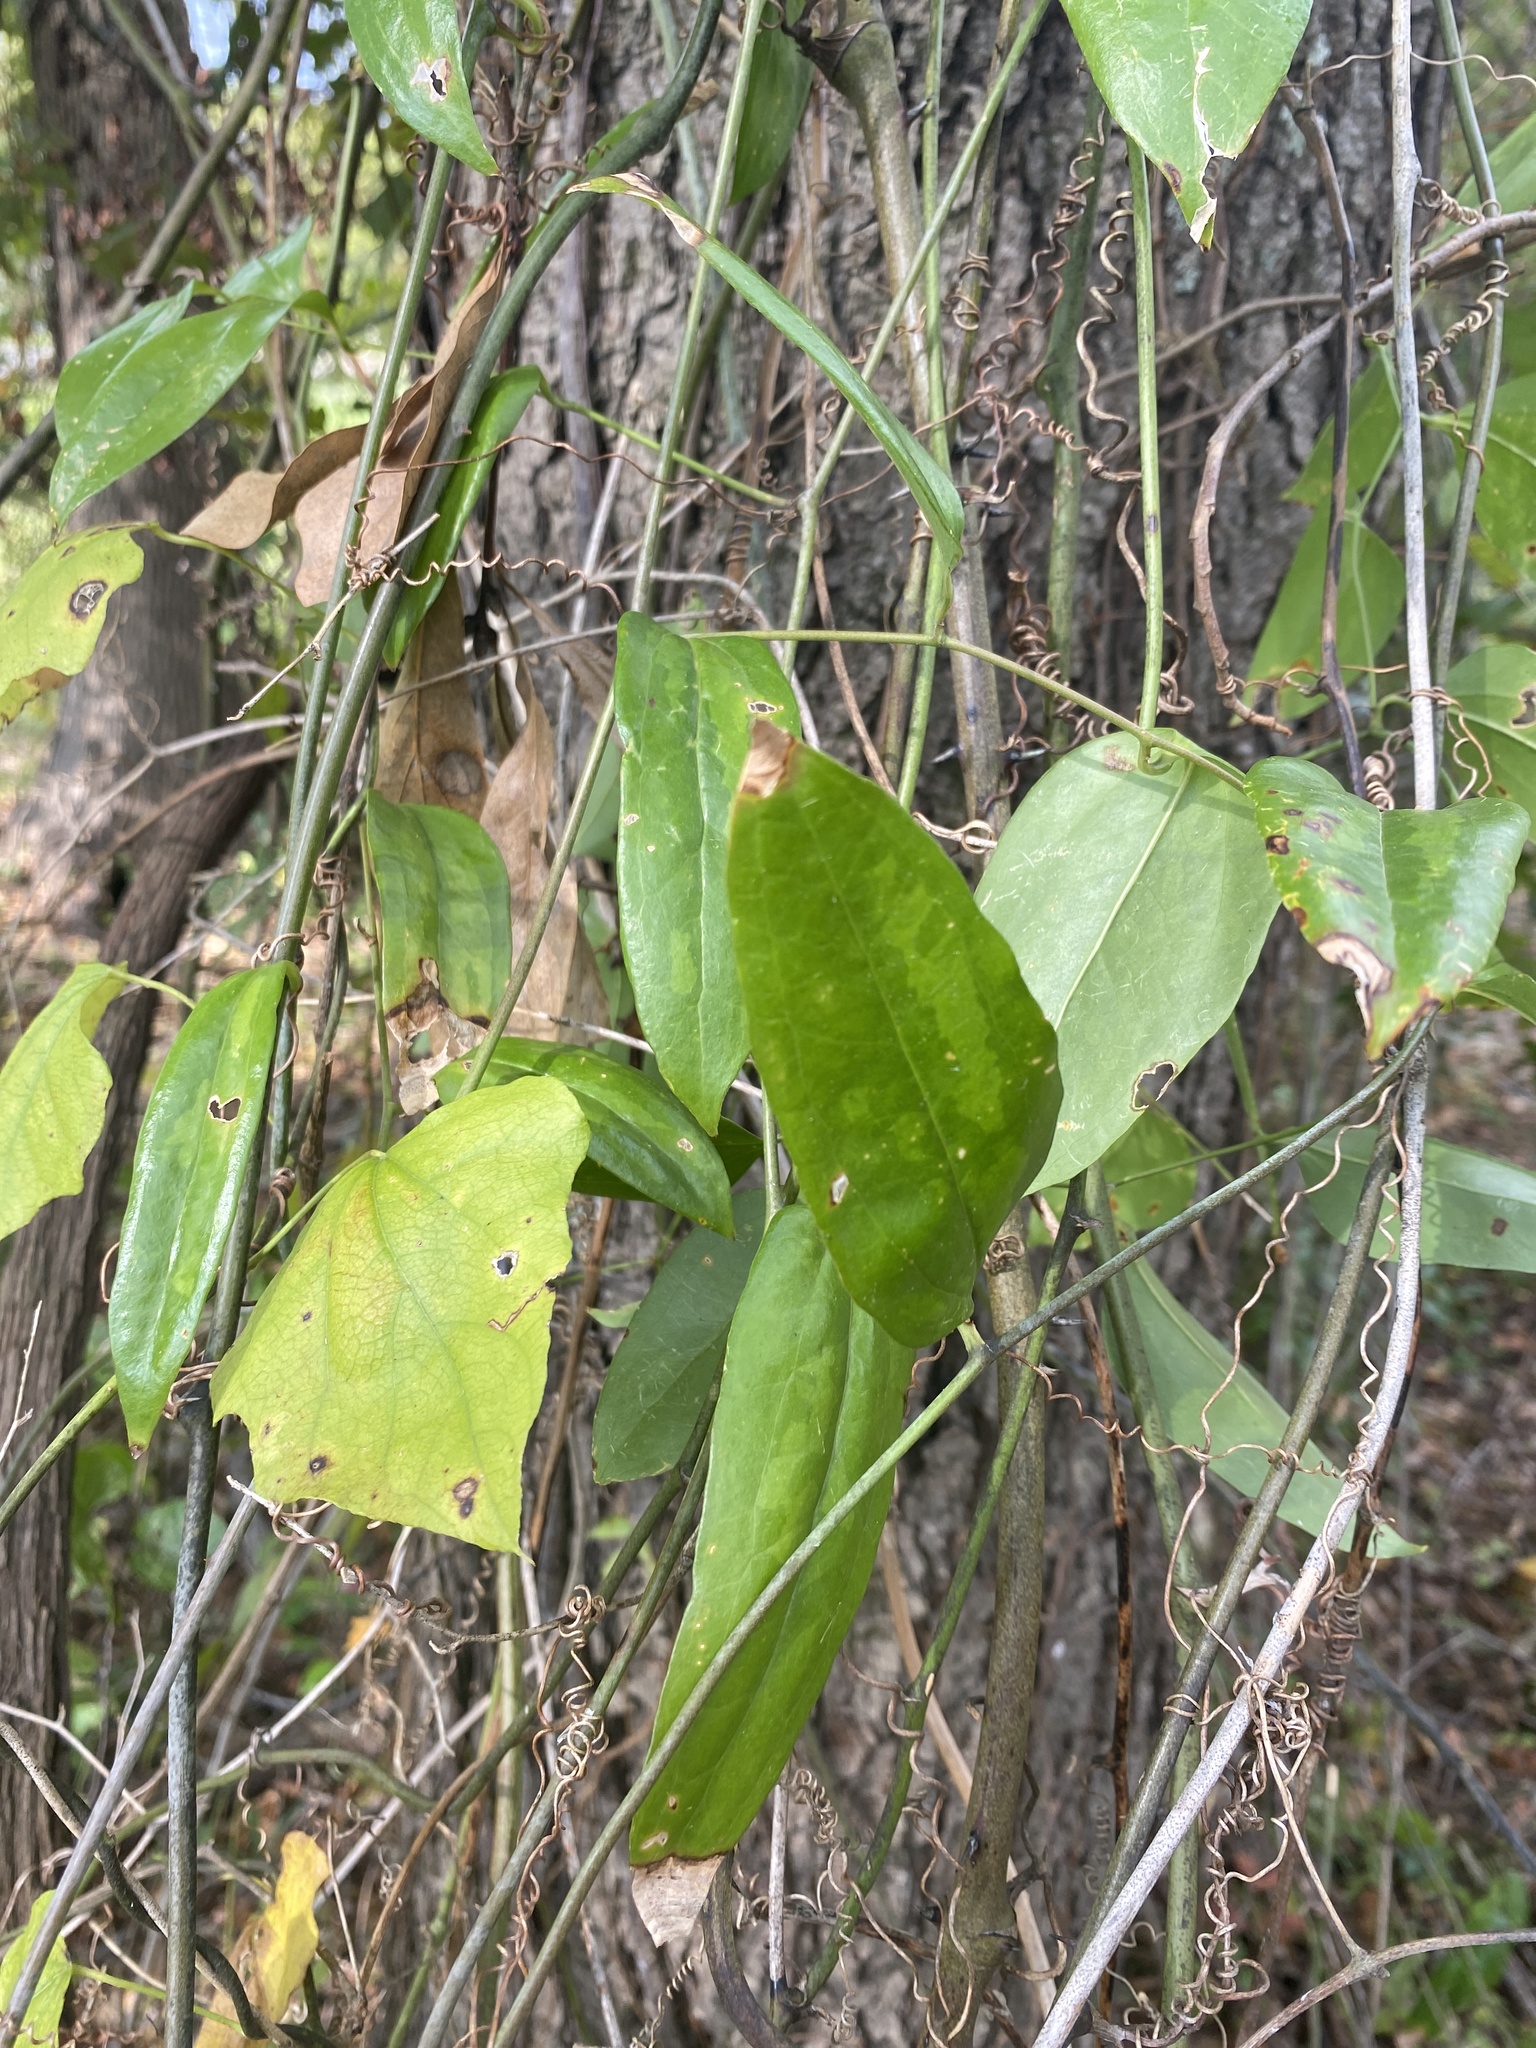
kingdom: Plantae
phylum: Tracheophyta
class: Liliopsida
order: Liliales
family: Smilacaceae
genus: Smilax
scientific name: Smilax maritima
